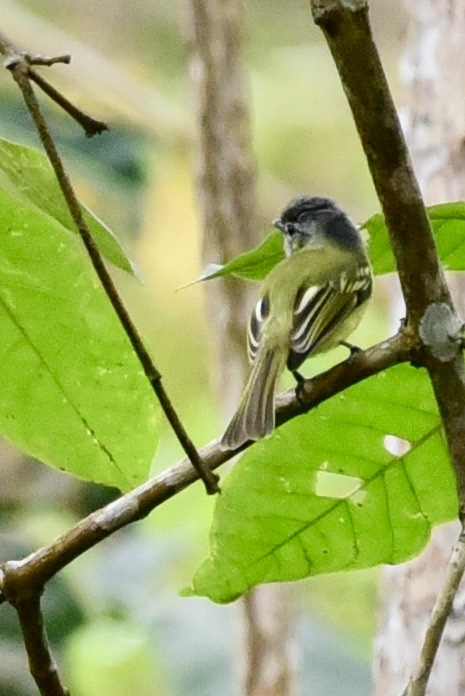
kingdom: Animalia
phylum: Chordata
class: Aves
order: Passeriformes
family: Tyrannidae
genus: Tolmomyias
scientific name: Tolmomyias sulphurescens
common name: Yellow-olive flycatcher
